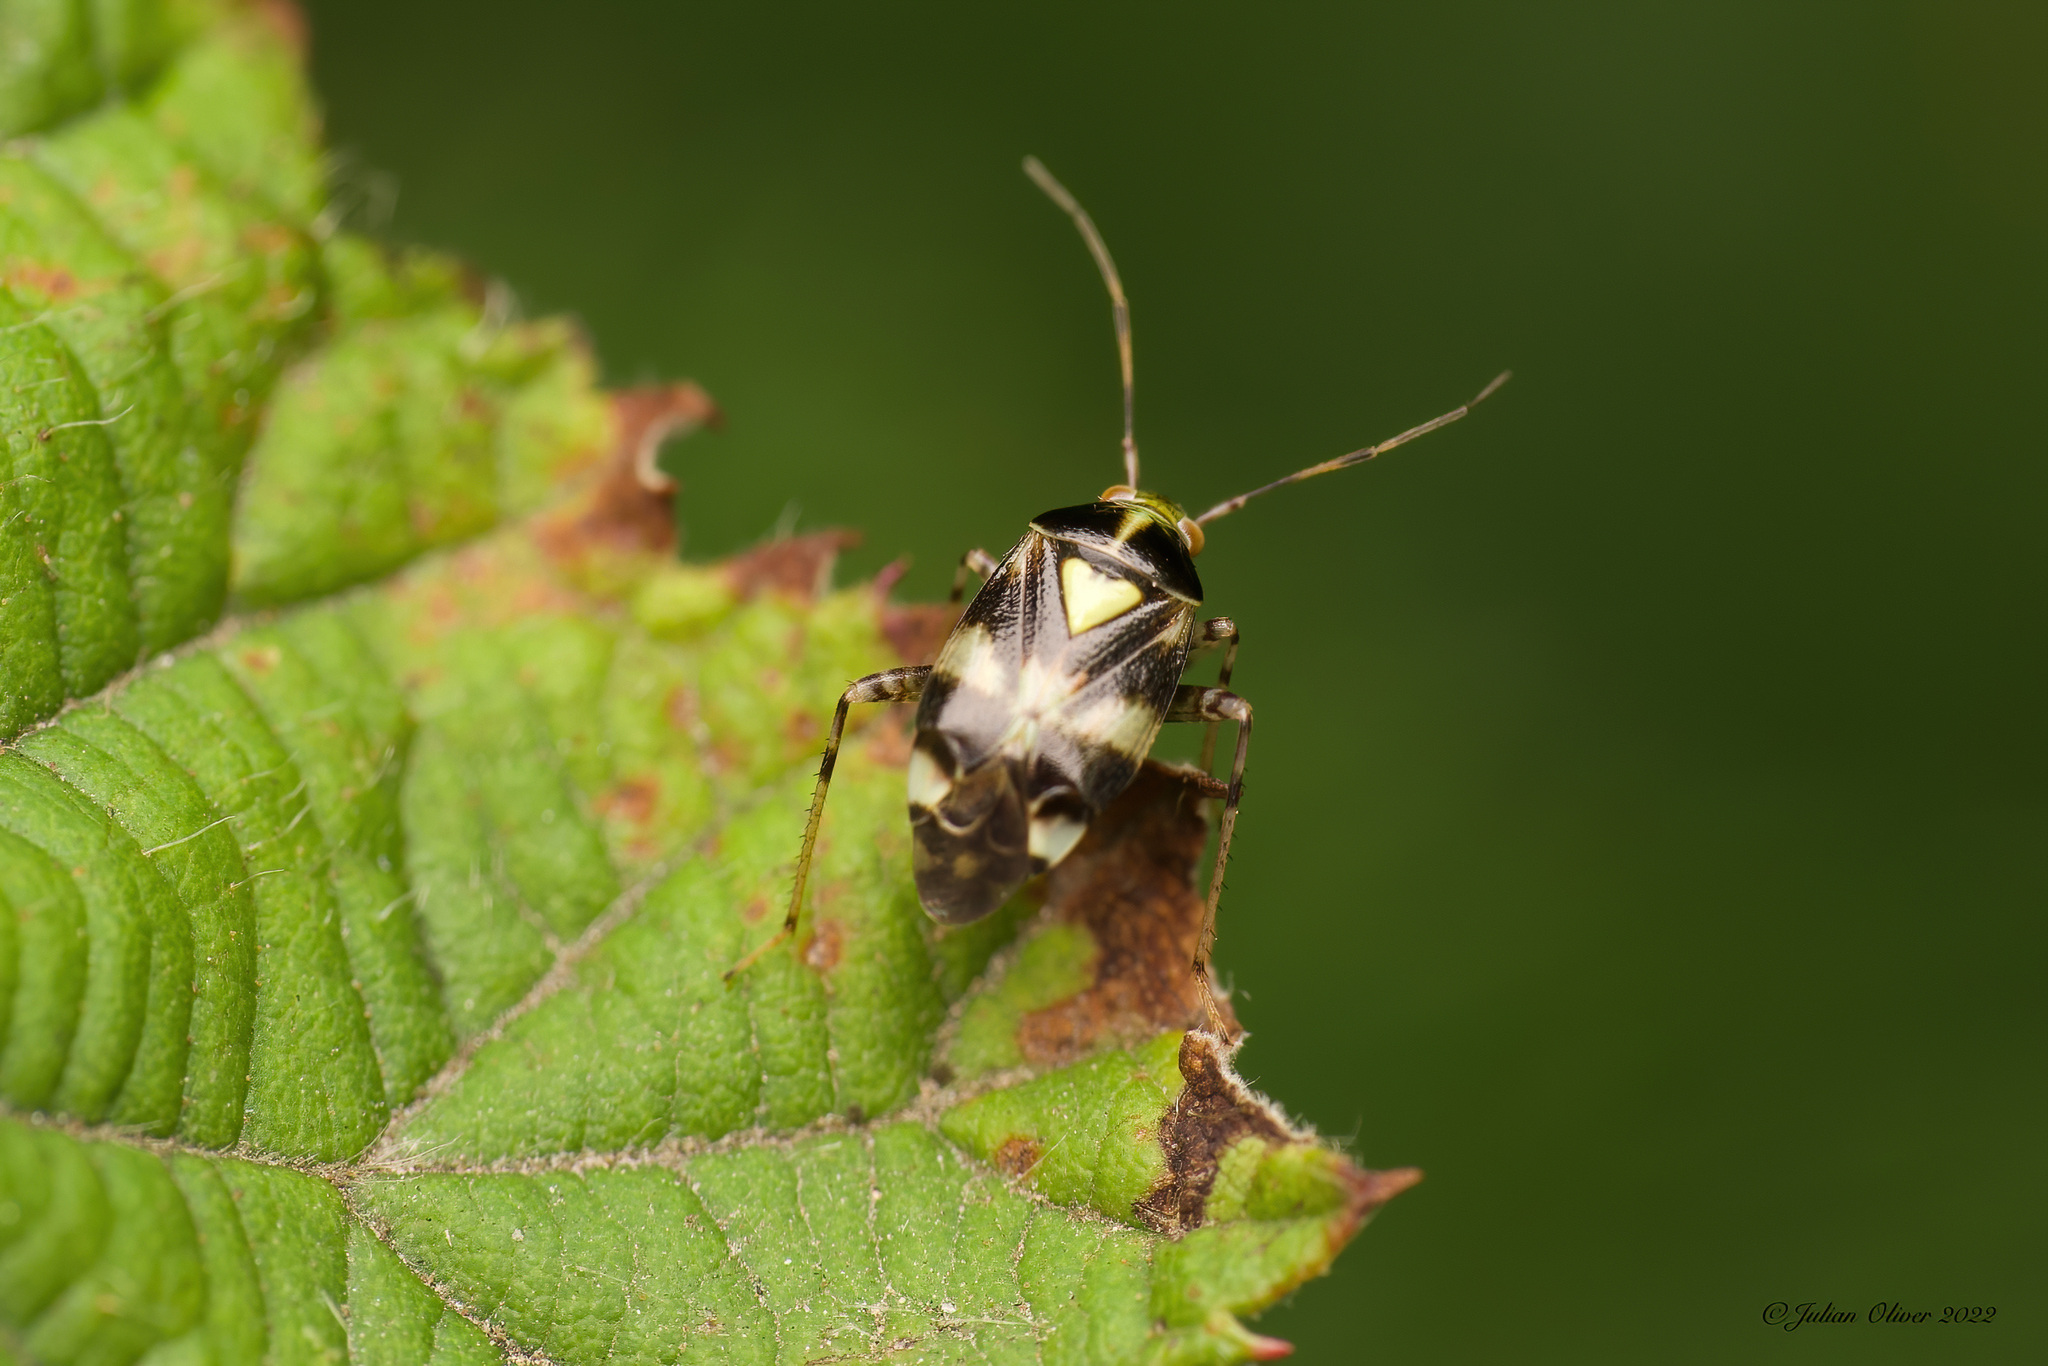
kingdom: Animalia
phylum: Arthropoda
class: Insecta
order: Hemiptera
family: Miridae
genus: Liocoris
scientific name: Liocoris tripustulatus
